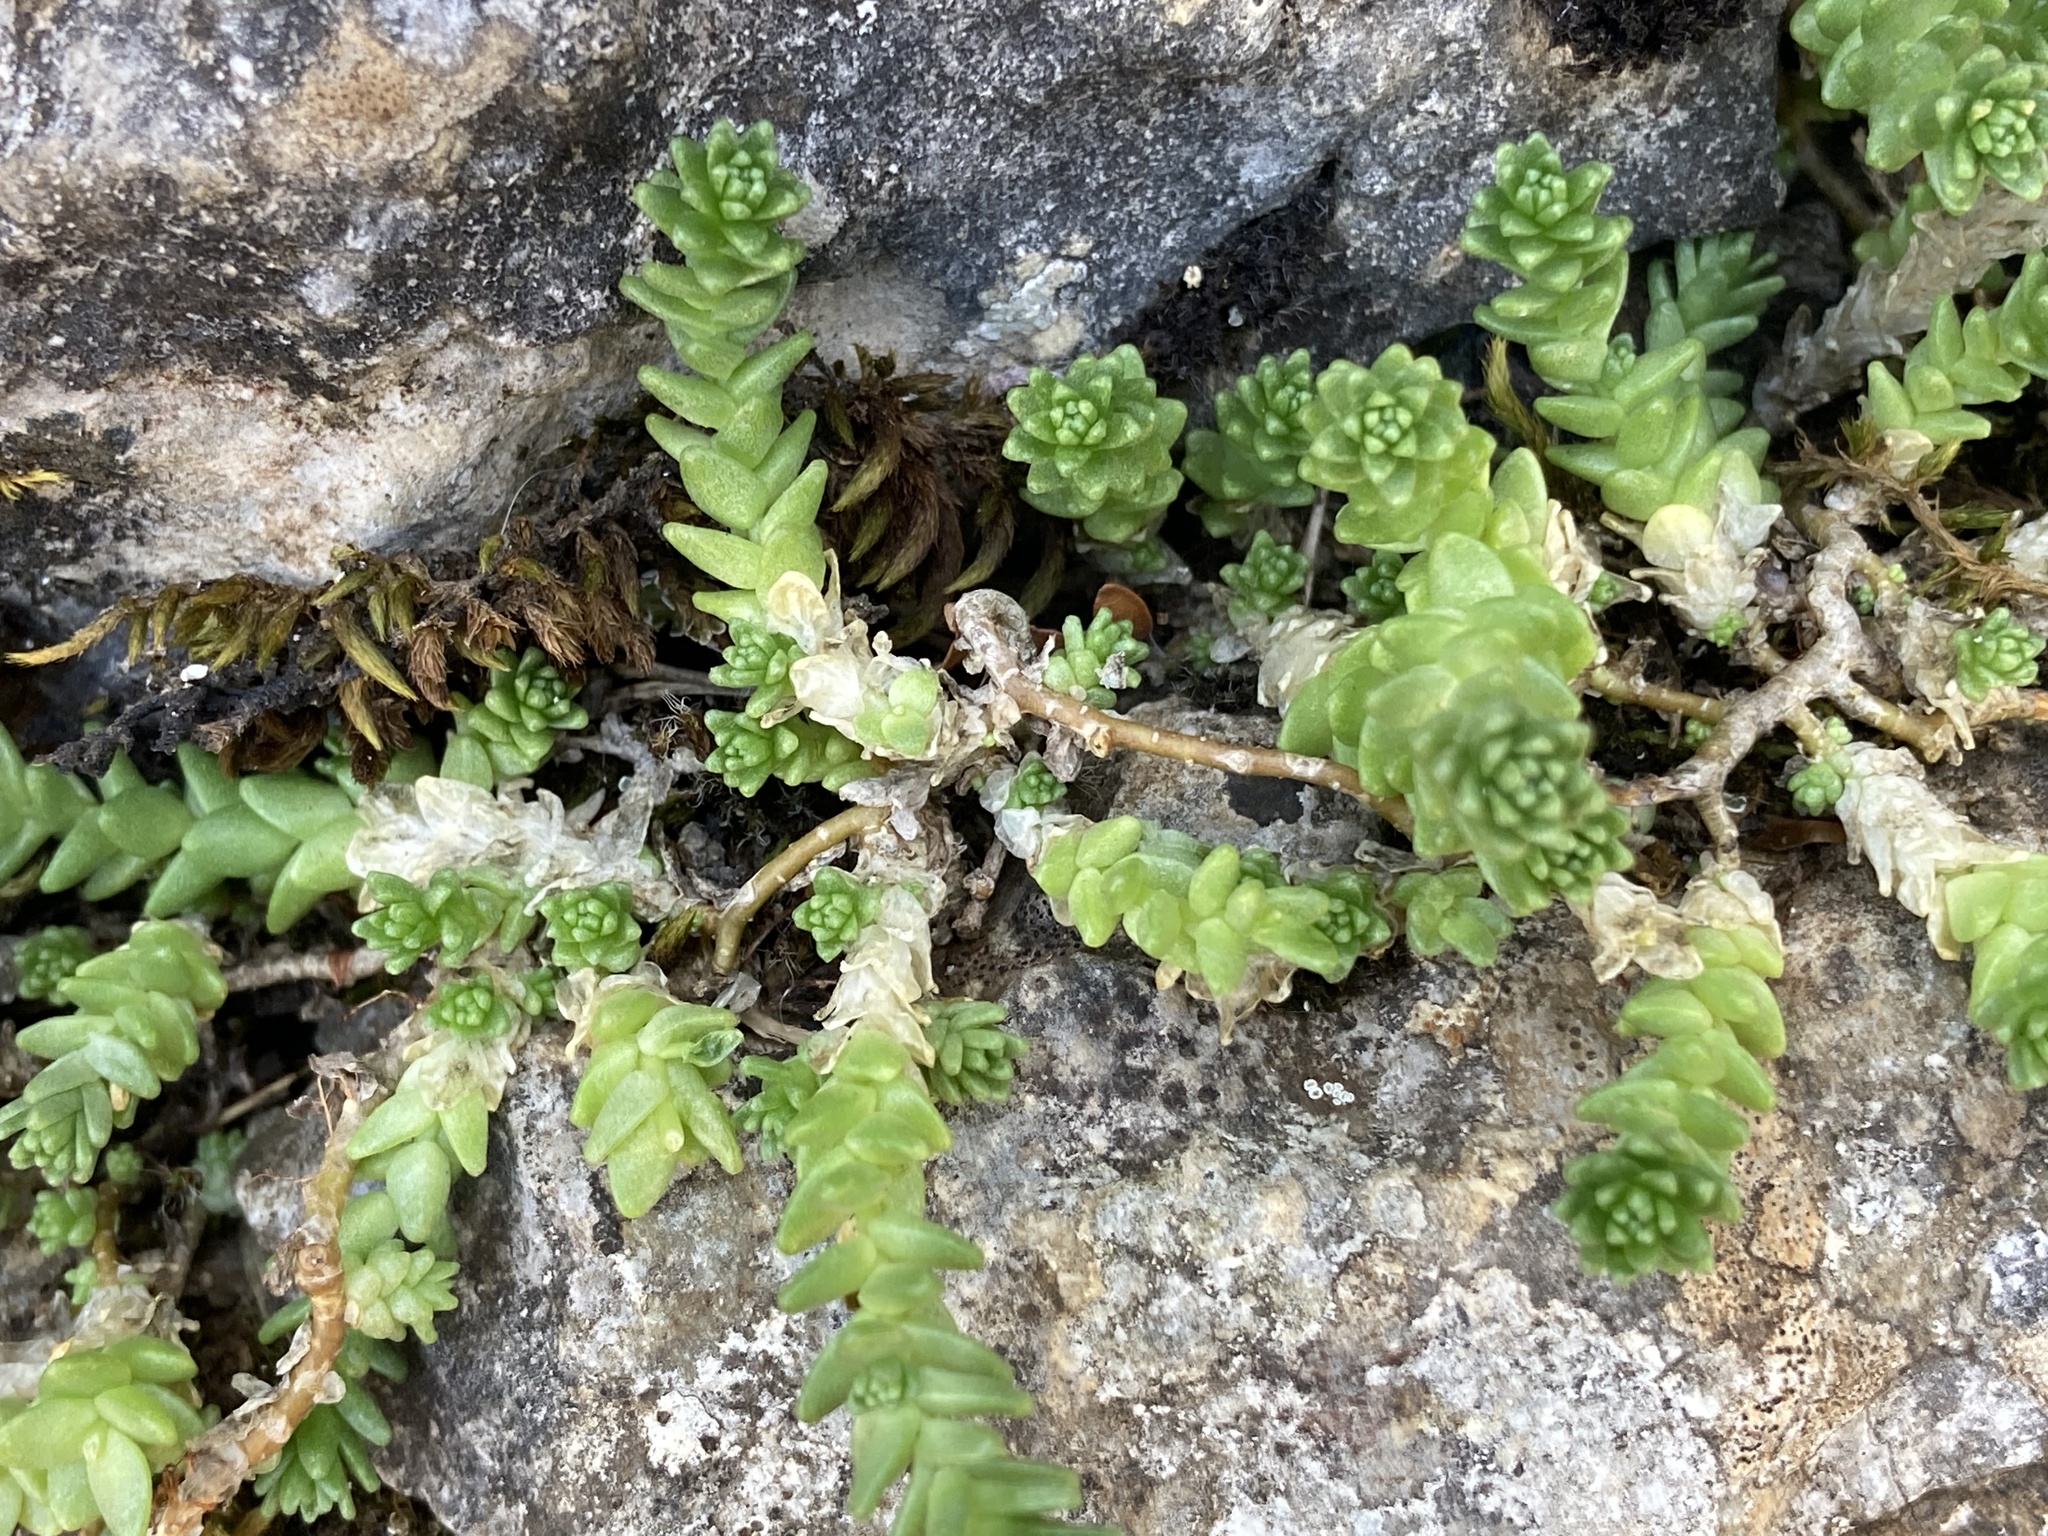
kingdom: Plantae
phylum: Tracheophyta
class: Magnoliopsida
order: Saxifragales
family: Crassulaceae
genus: Sedum
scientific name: Sedum acre
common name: Biting stonecrop
